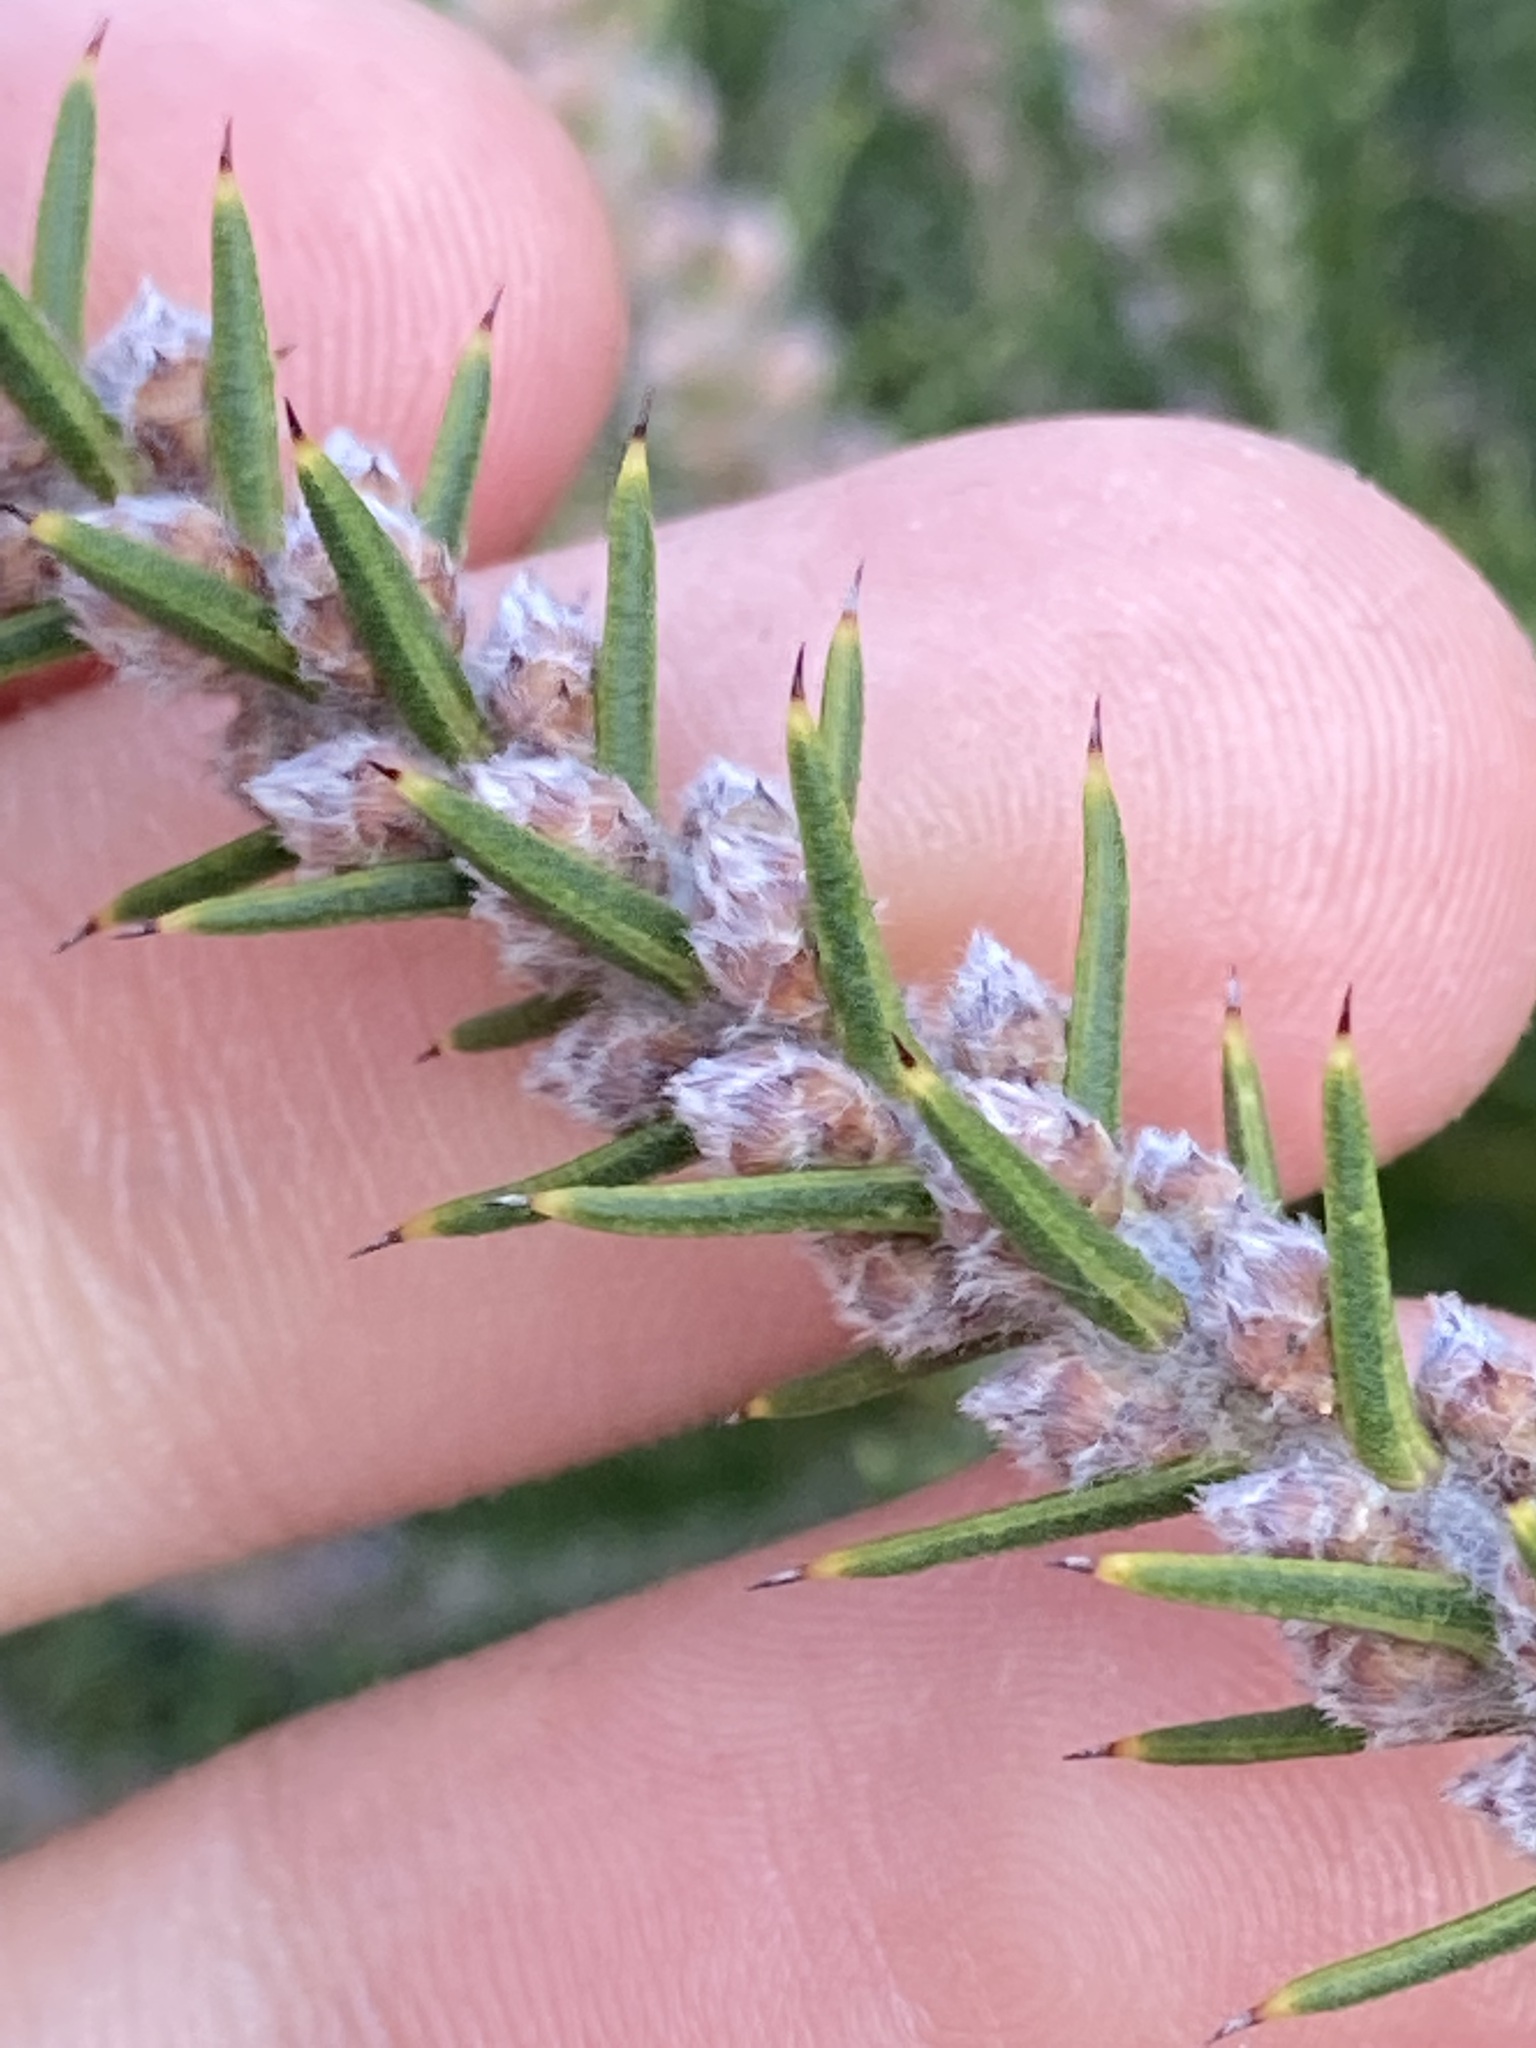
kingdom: Plantae
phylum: Tracheophyta
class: Magnoliopsida
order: Proteales
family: Proteaceae
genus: Hakea
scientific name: Hakea costata
